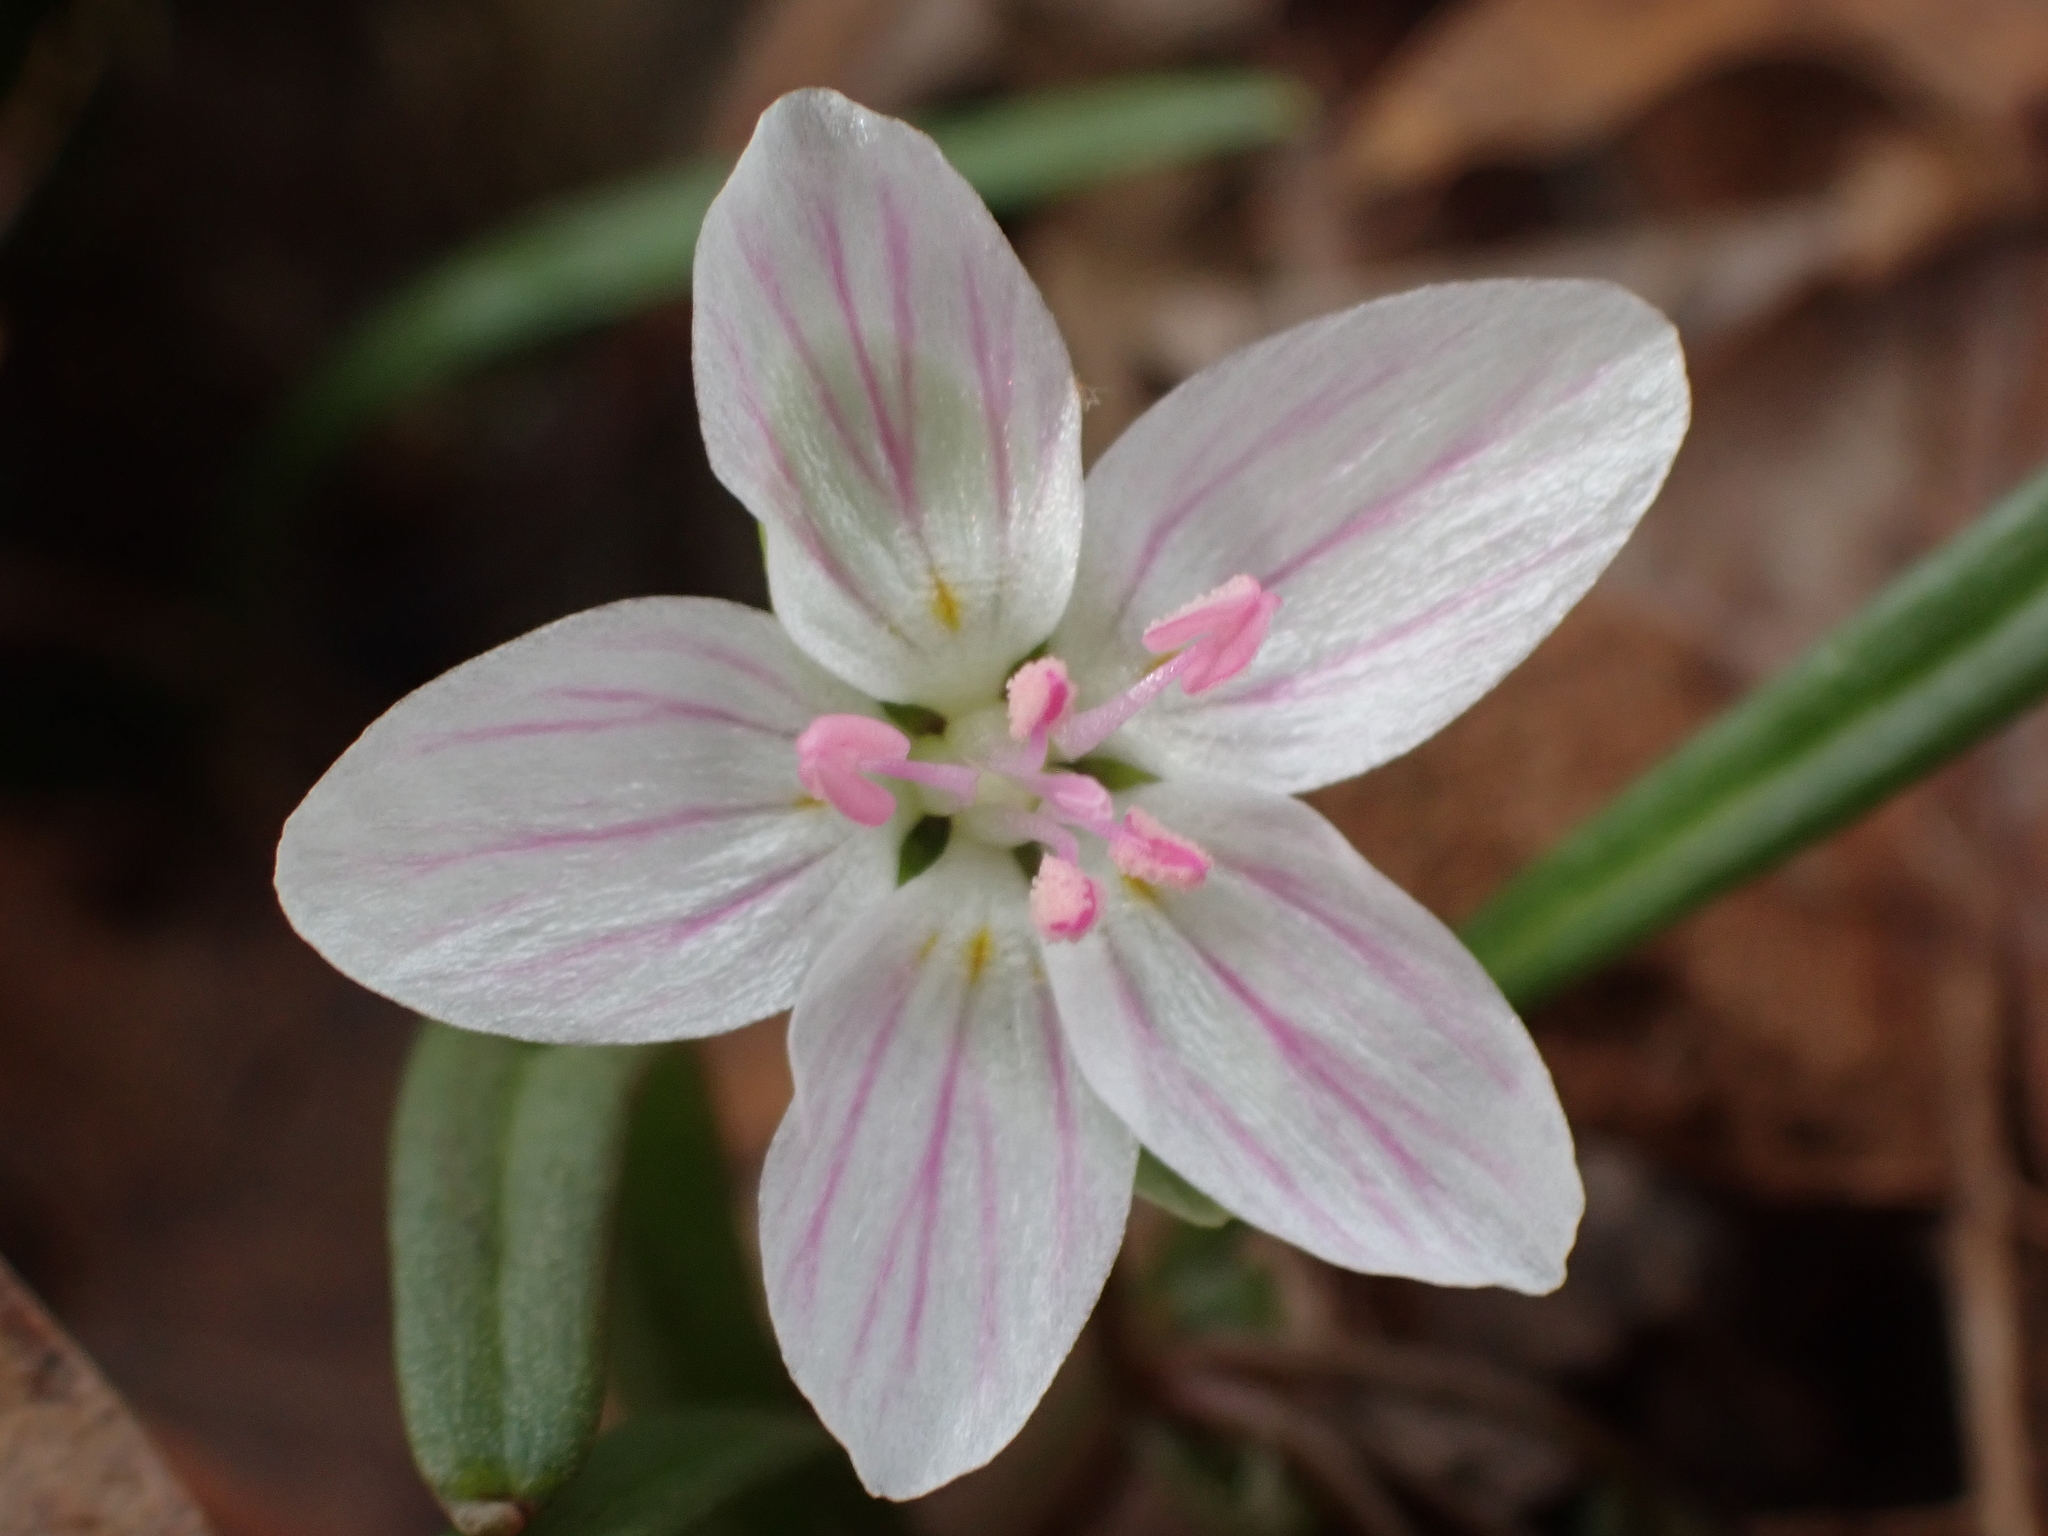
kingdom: Plantae
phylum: Tracheophyta
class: Magnoliopsida
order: Caryophyllales
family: Montiaceae
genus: Claytonia
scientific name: Claytonia virginica
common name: Virginia springbeauty
